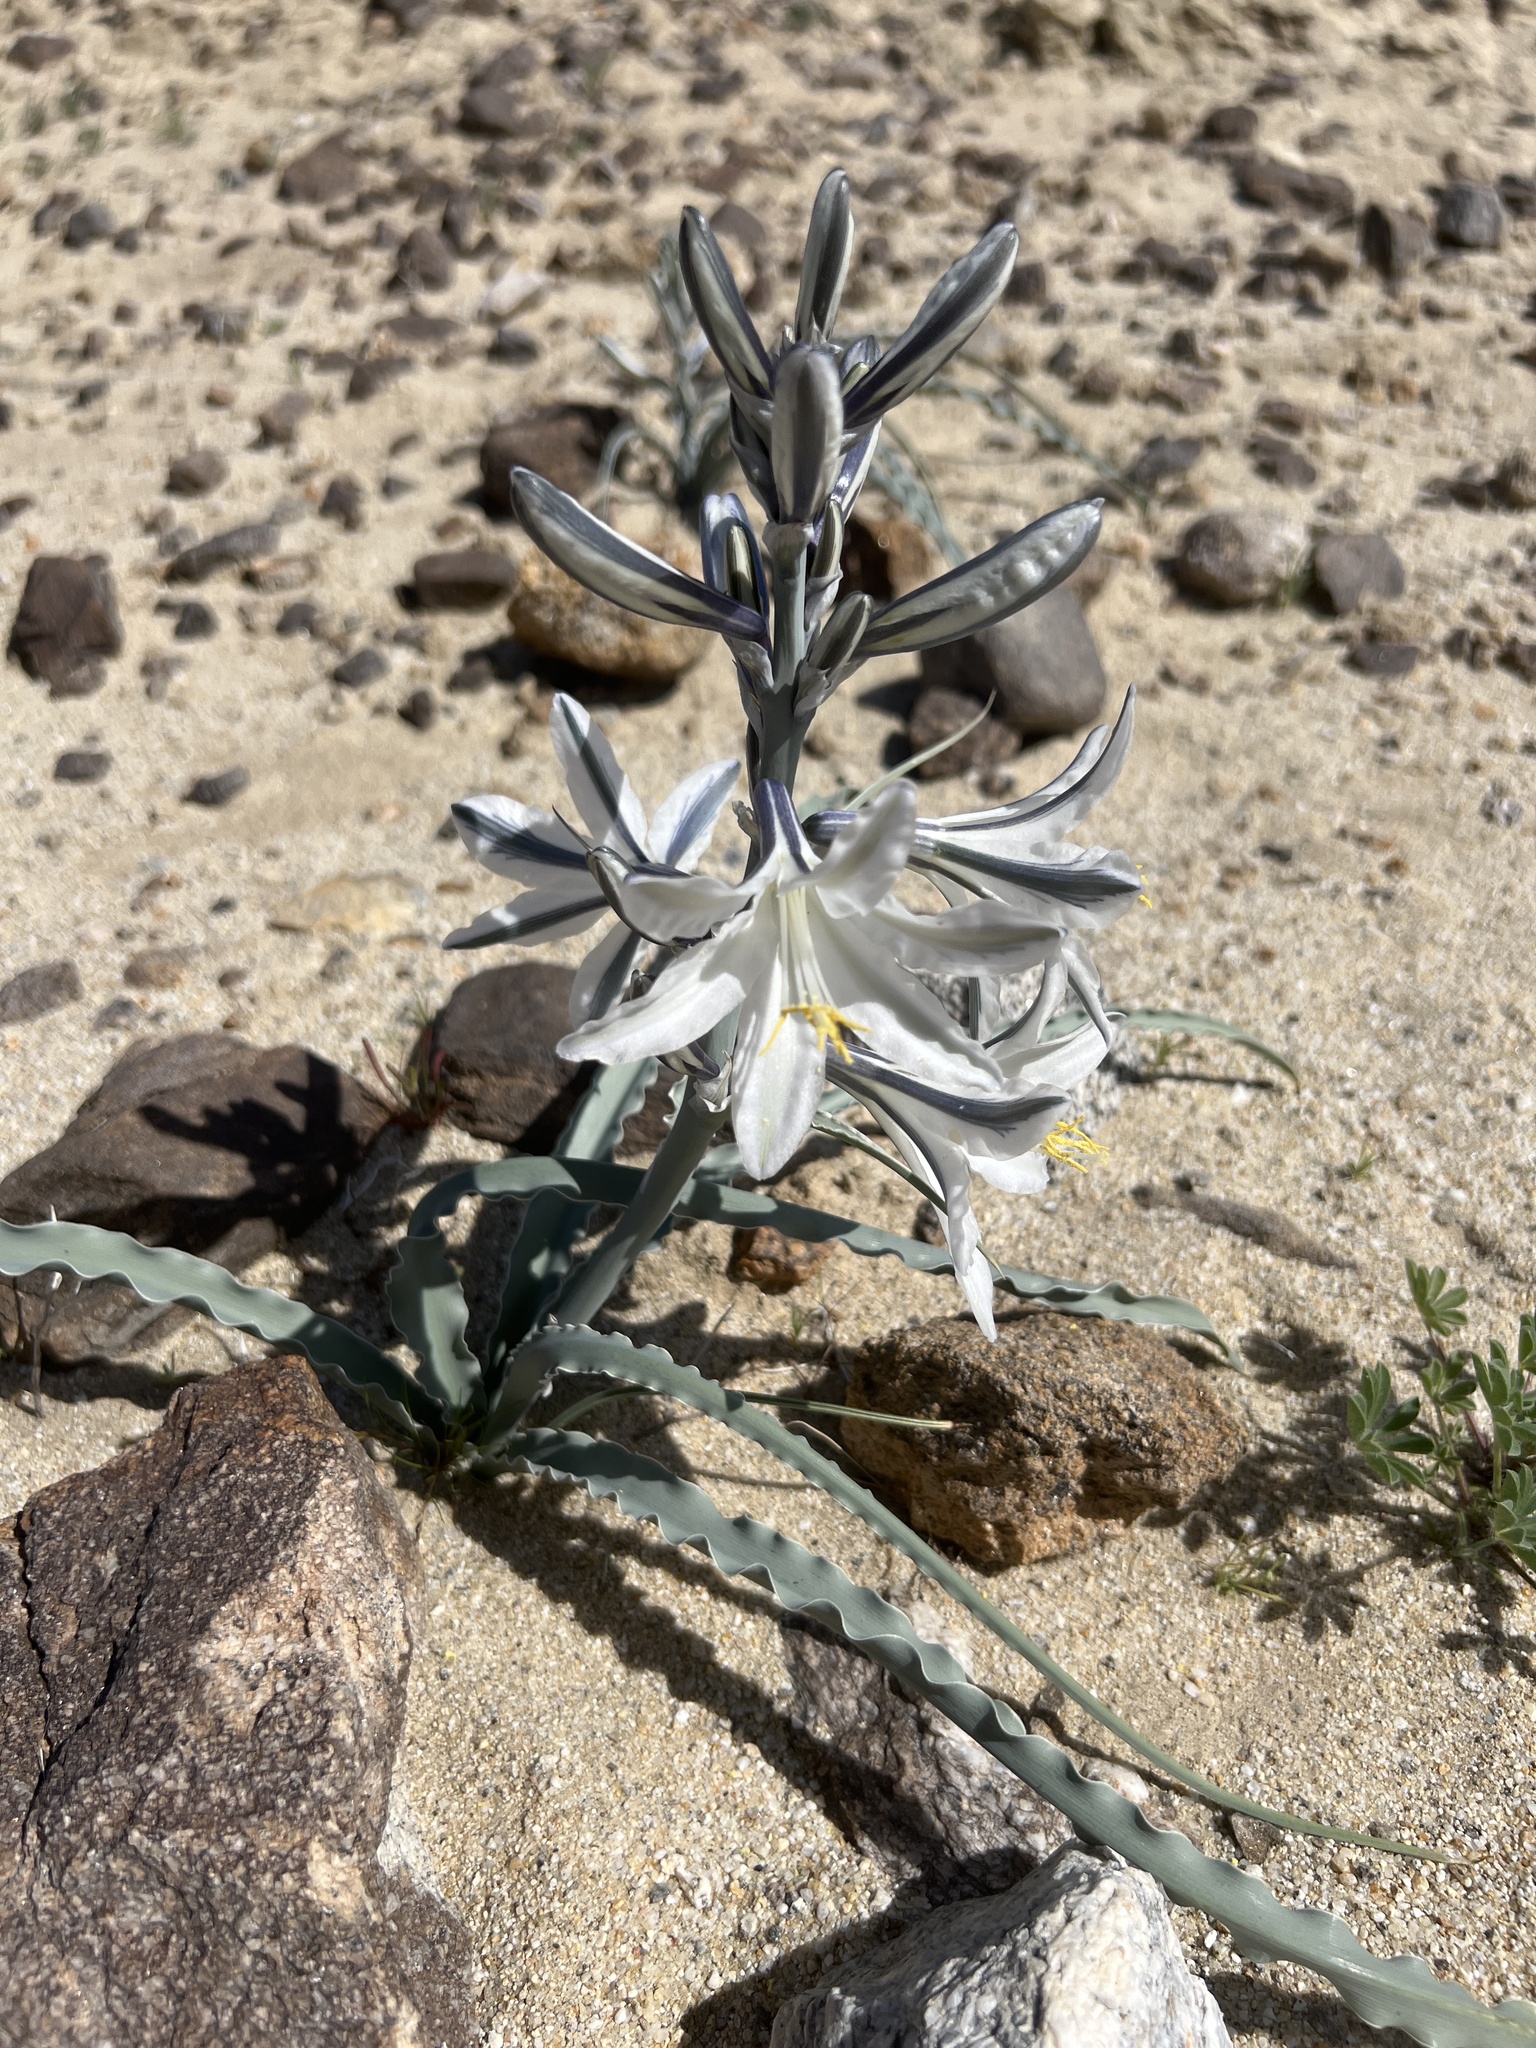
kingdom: Plantae
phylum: Tracheophyta
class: Liliopsida
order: Asparagales
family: Asparagaceae
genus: Hesperocallis
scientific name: Hesperocallis undulata
